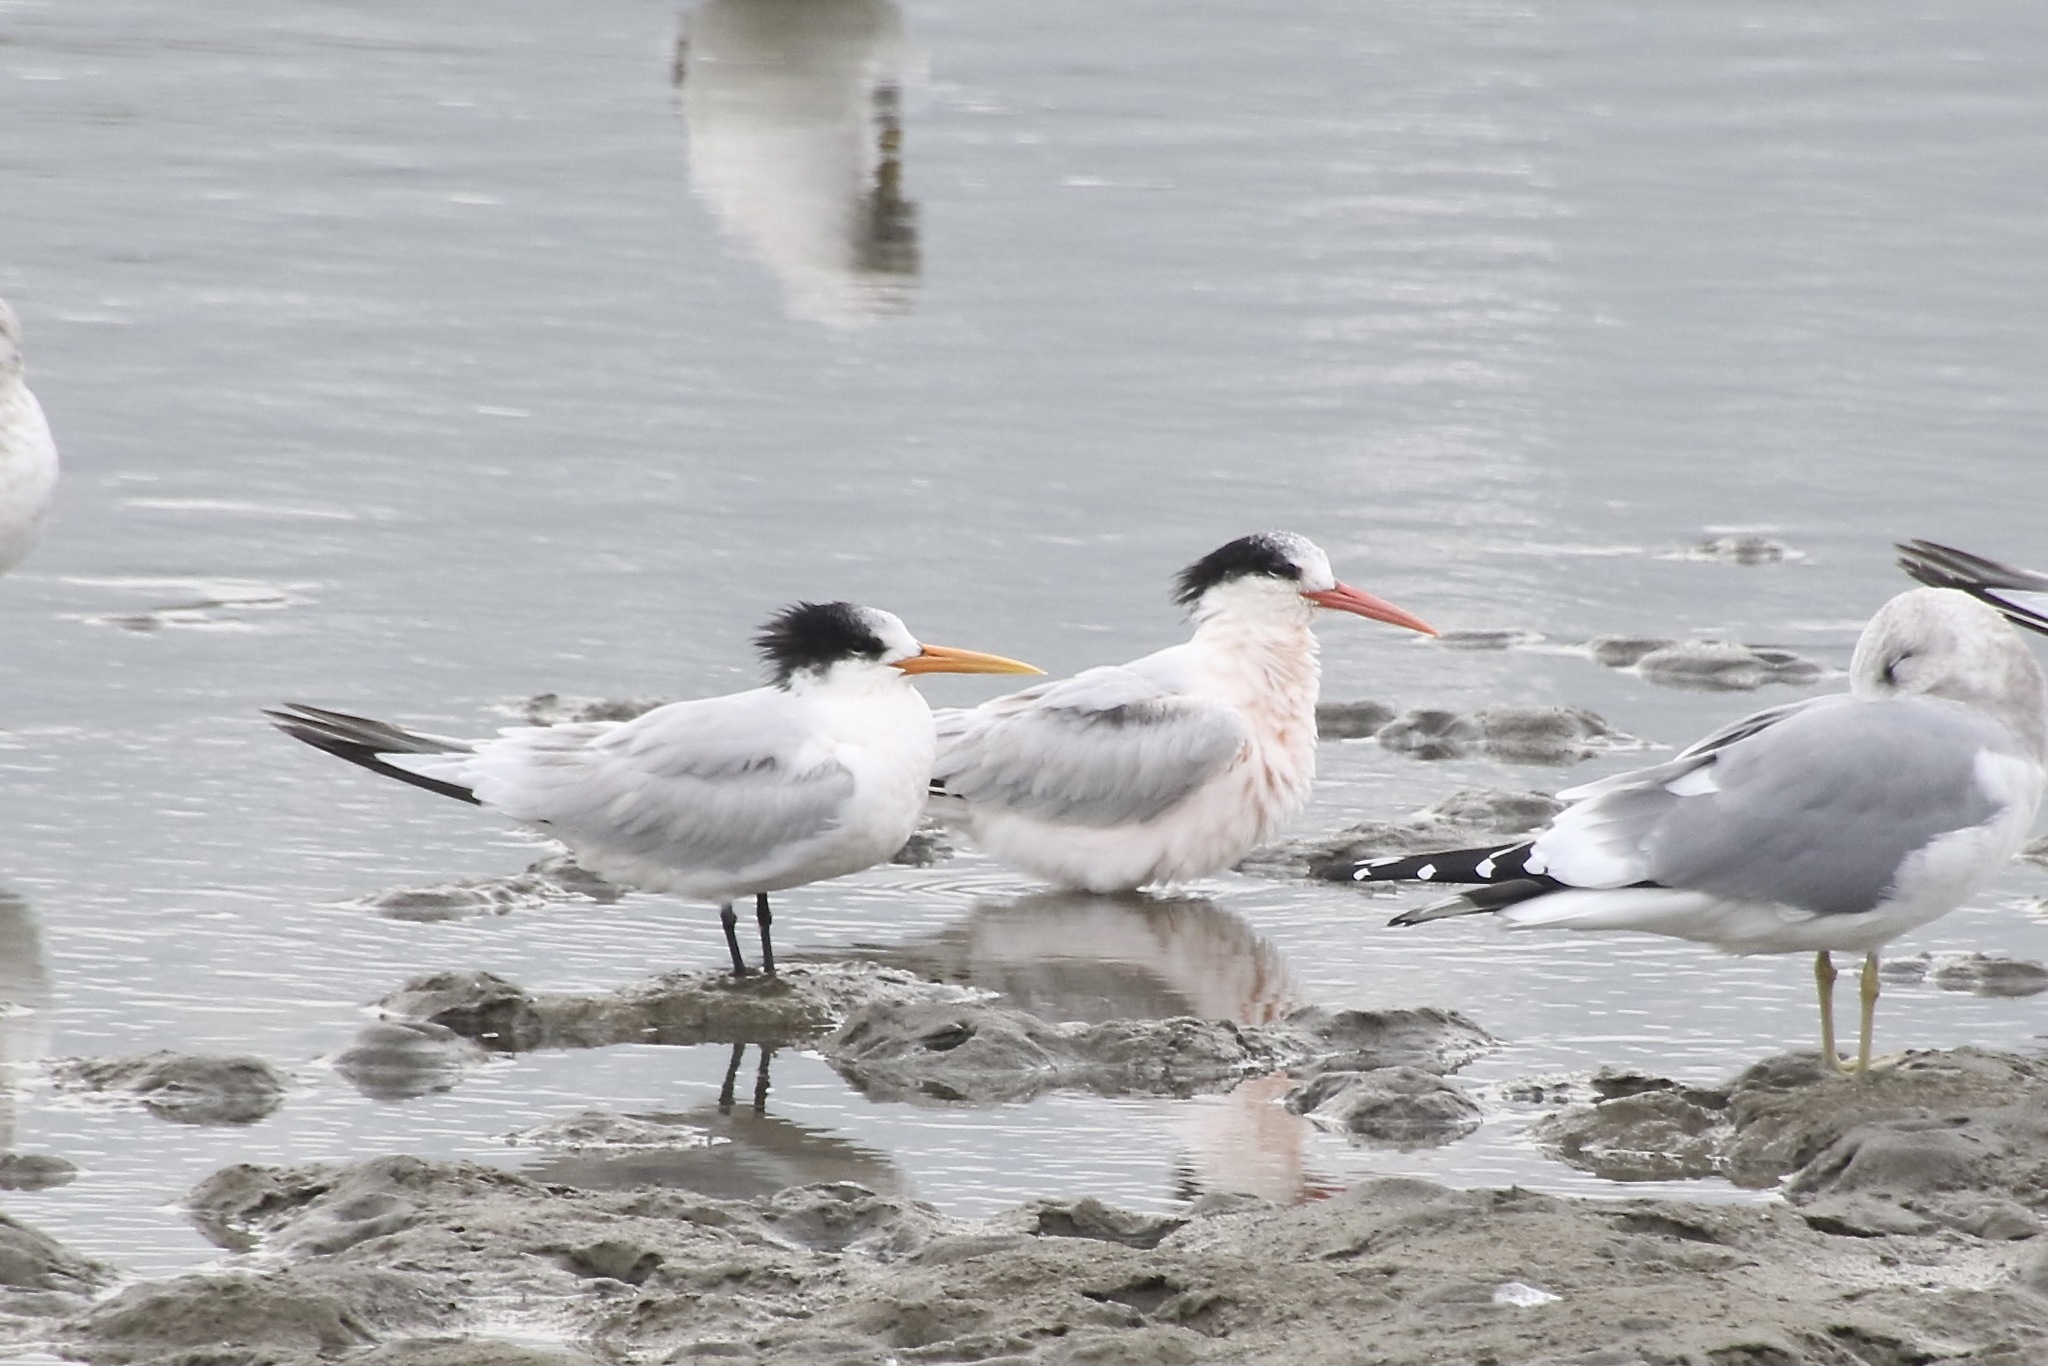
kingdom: Animalia
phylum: Chordata
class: Aves
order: Charadriiformes
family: Laridae
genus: Thalasseus
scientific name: Thalasseus elegans
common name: Elegant tern
